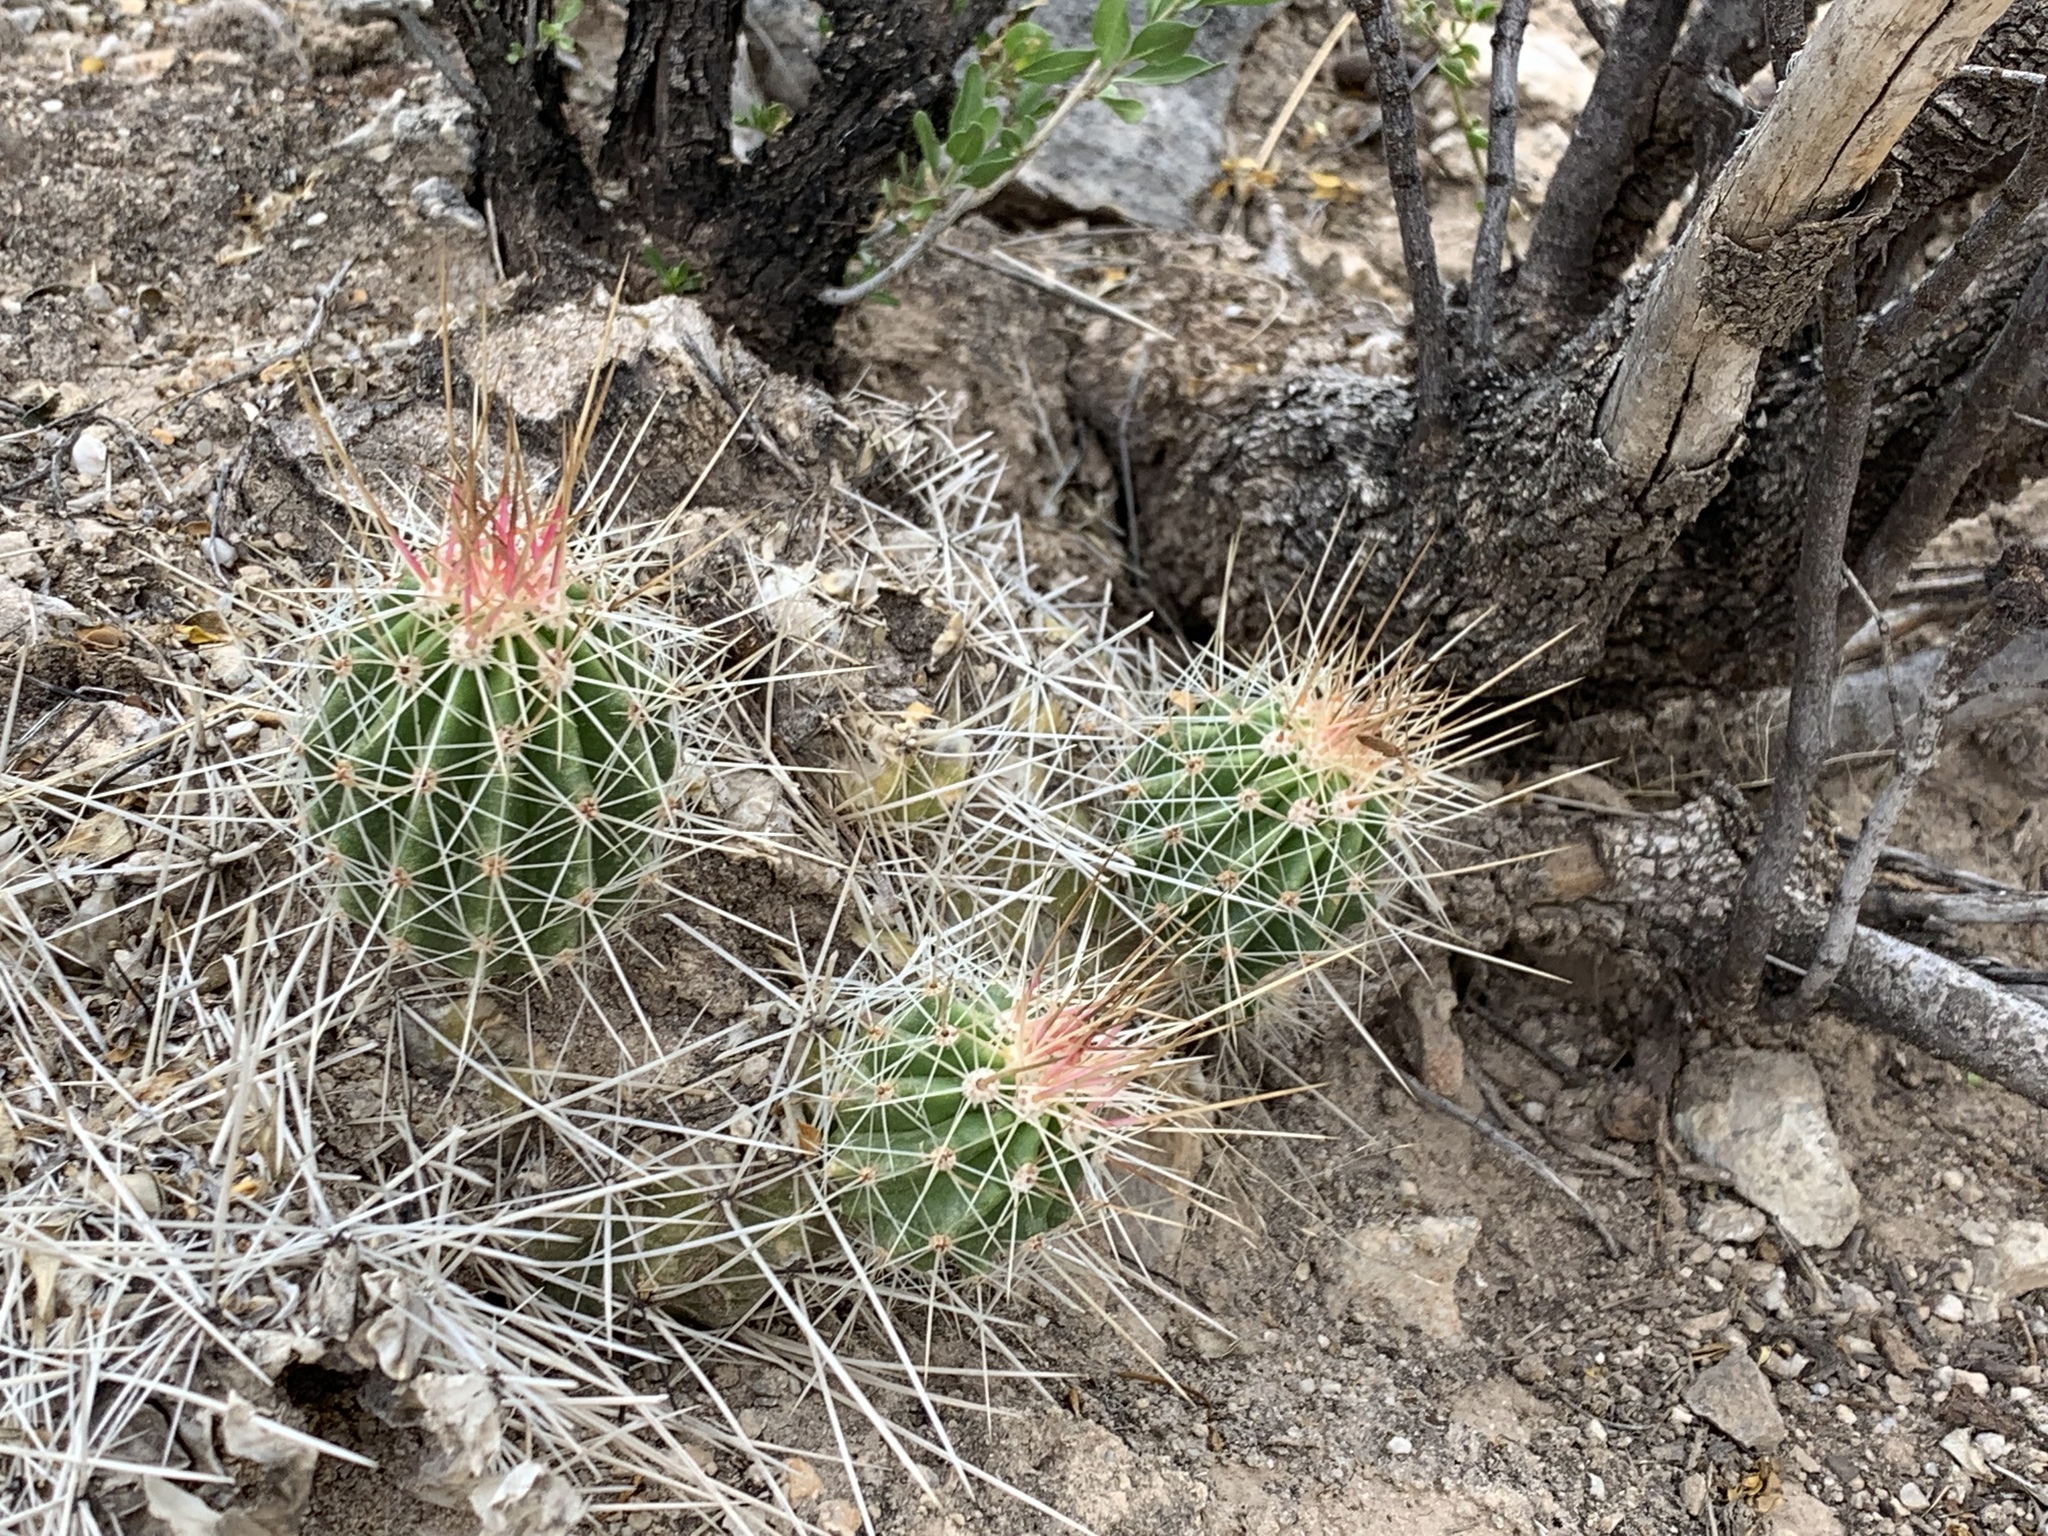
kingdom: Plantae
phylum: Tracheophyta
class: Magnoliopsida
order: Caryophyllales
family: Cactaceae
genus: Echinocereus
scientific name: Echinocereus stramineus
